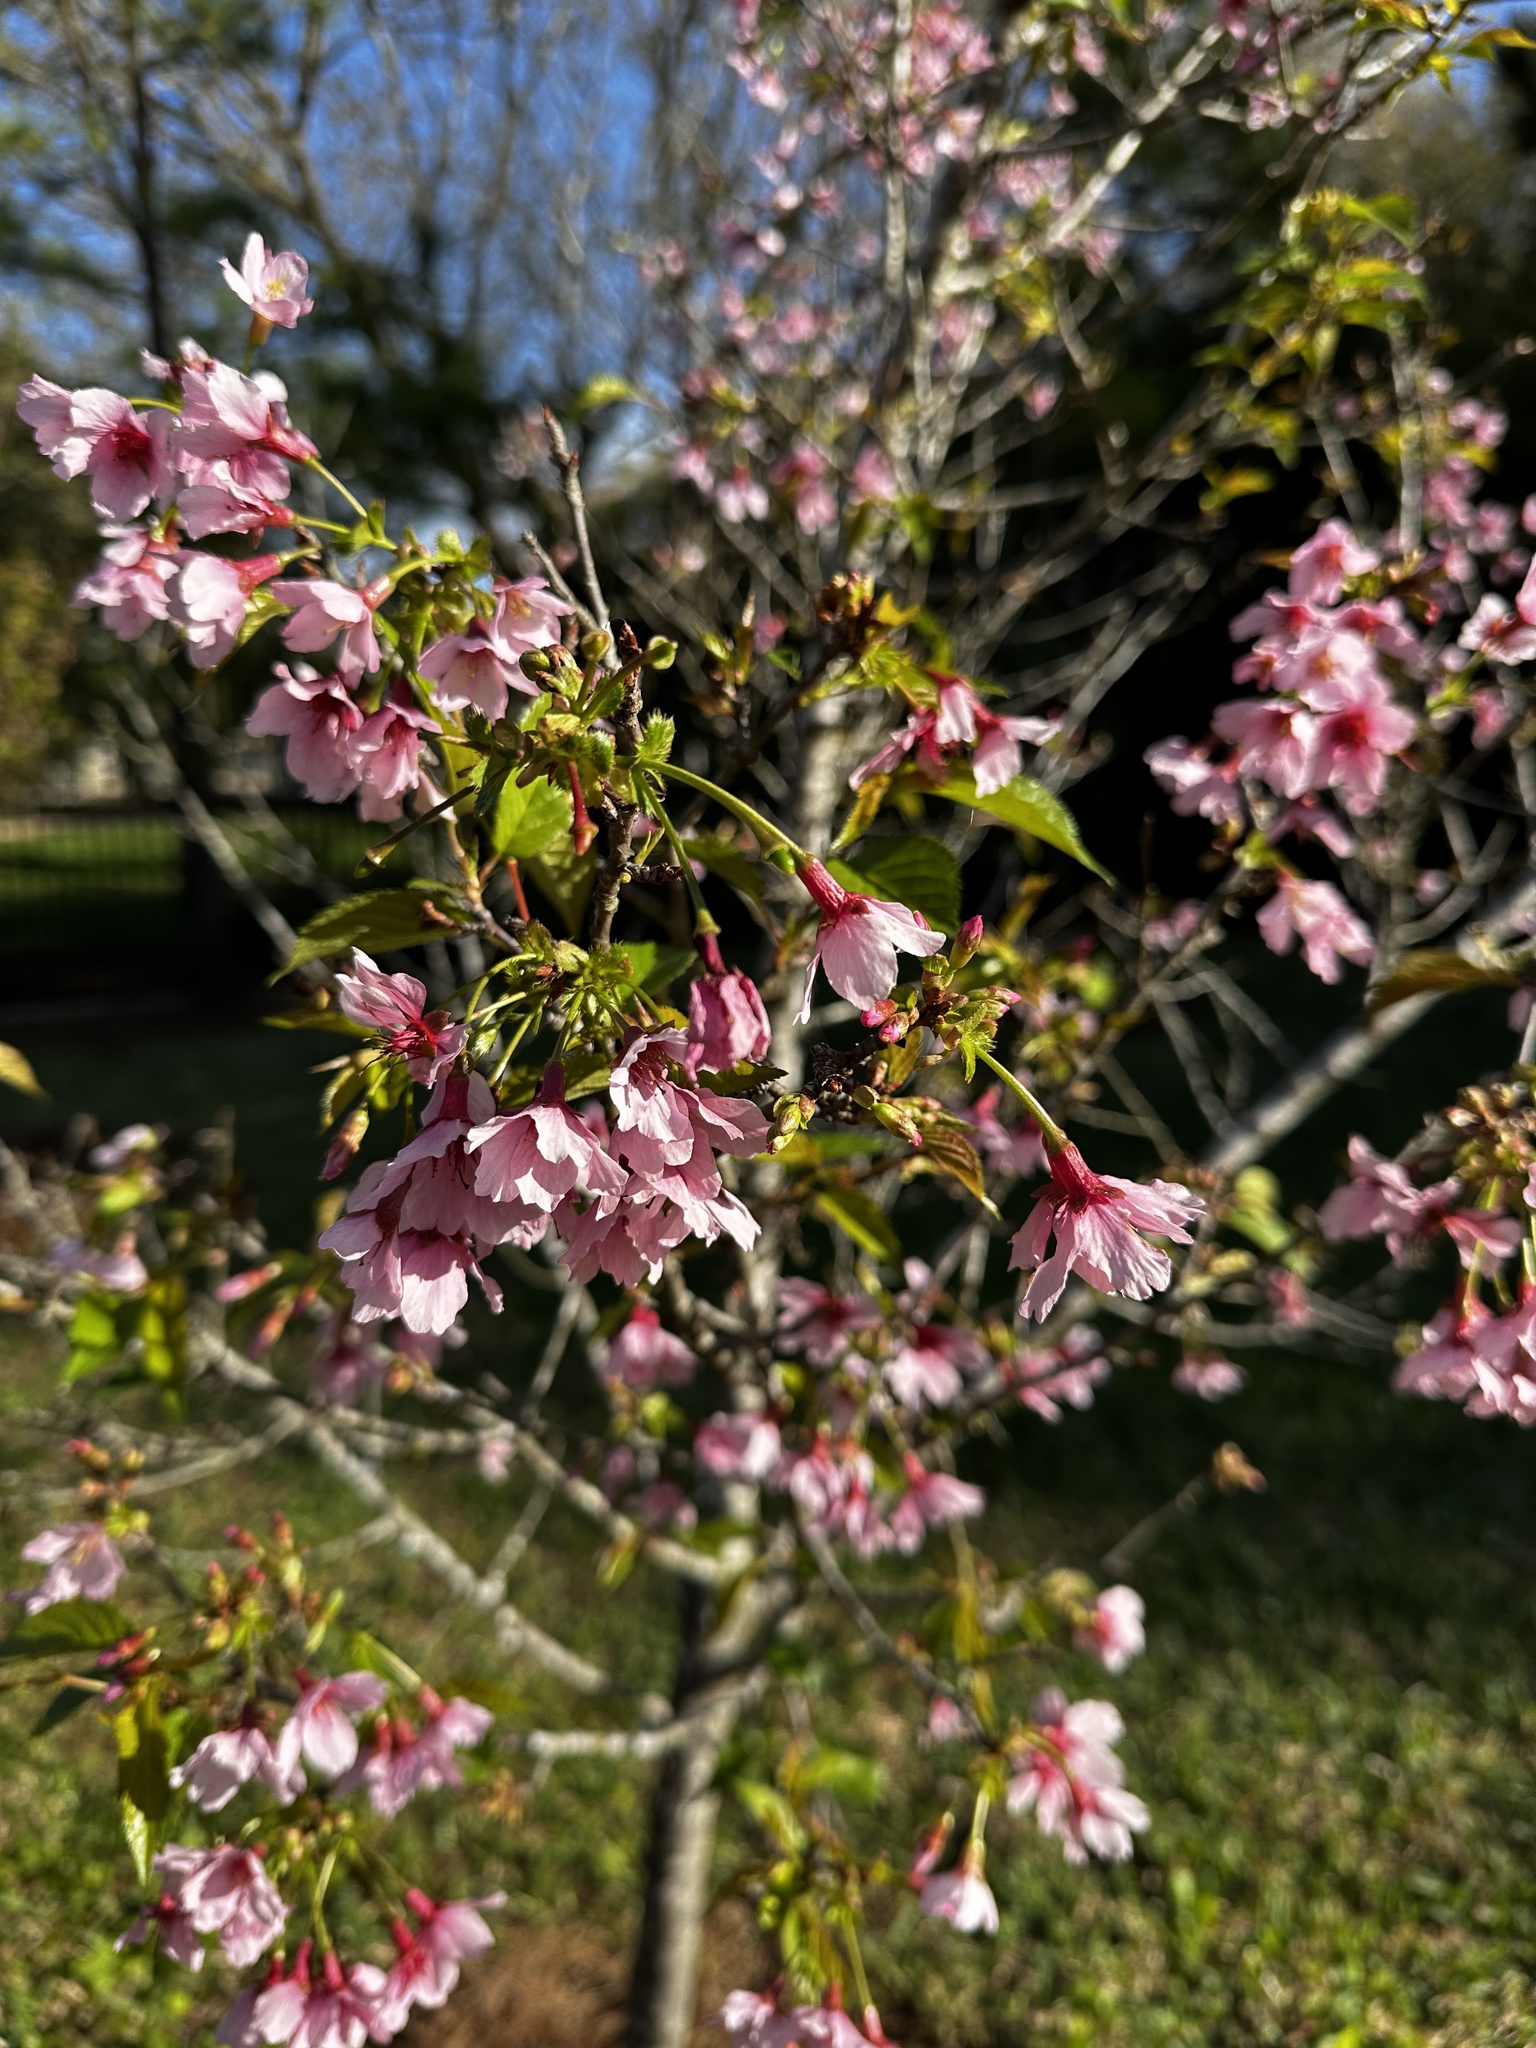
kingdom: Plantae
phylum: Tracheophyta
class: Magnoliopsida
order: Rosales
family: Rosaceae
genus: Prunus
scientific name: Prunus campanulata
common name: Taiwan flowering cherry
